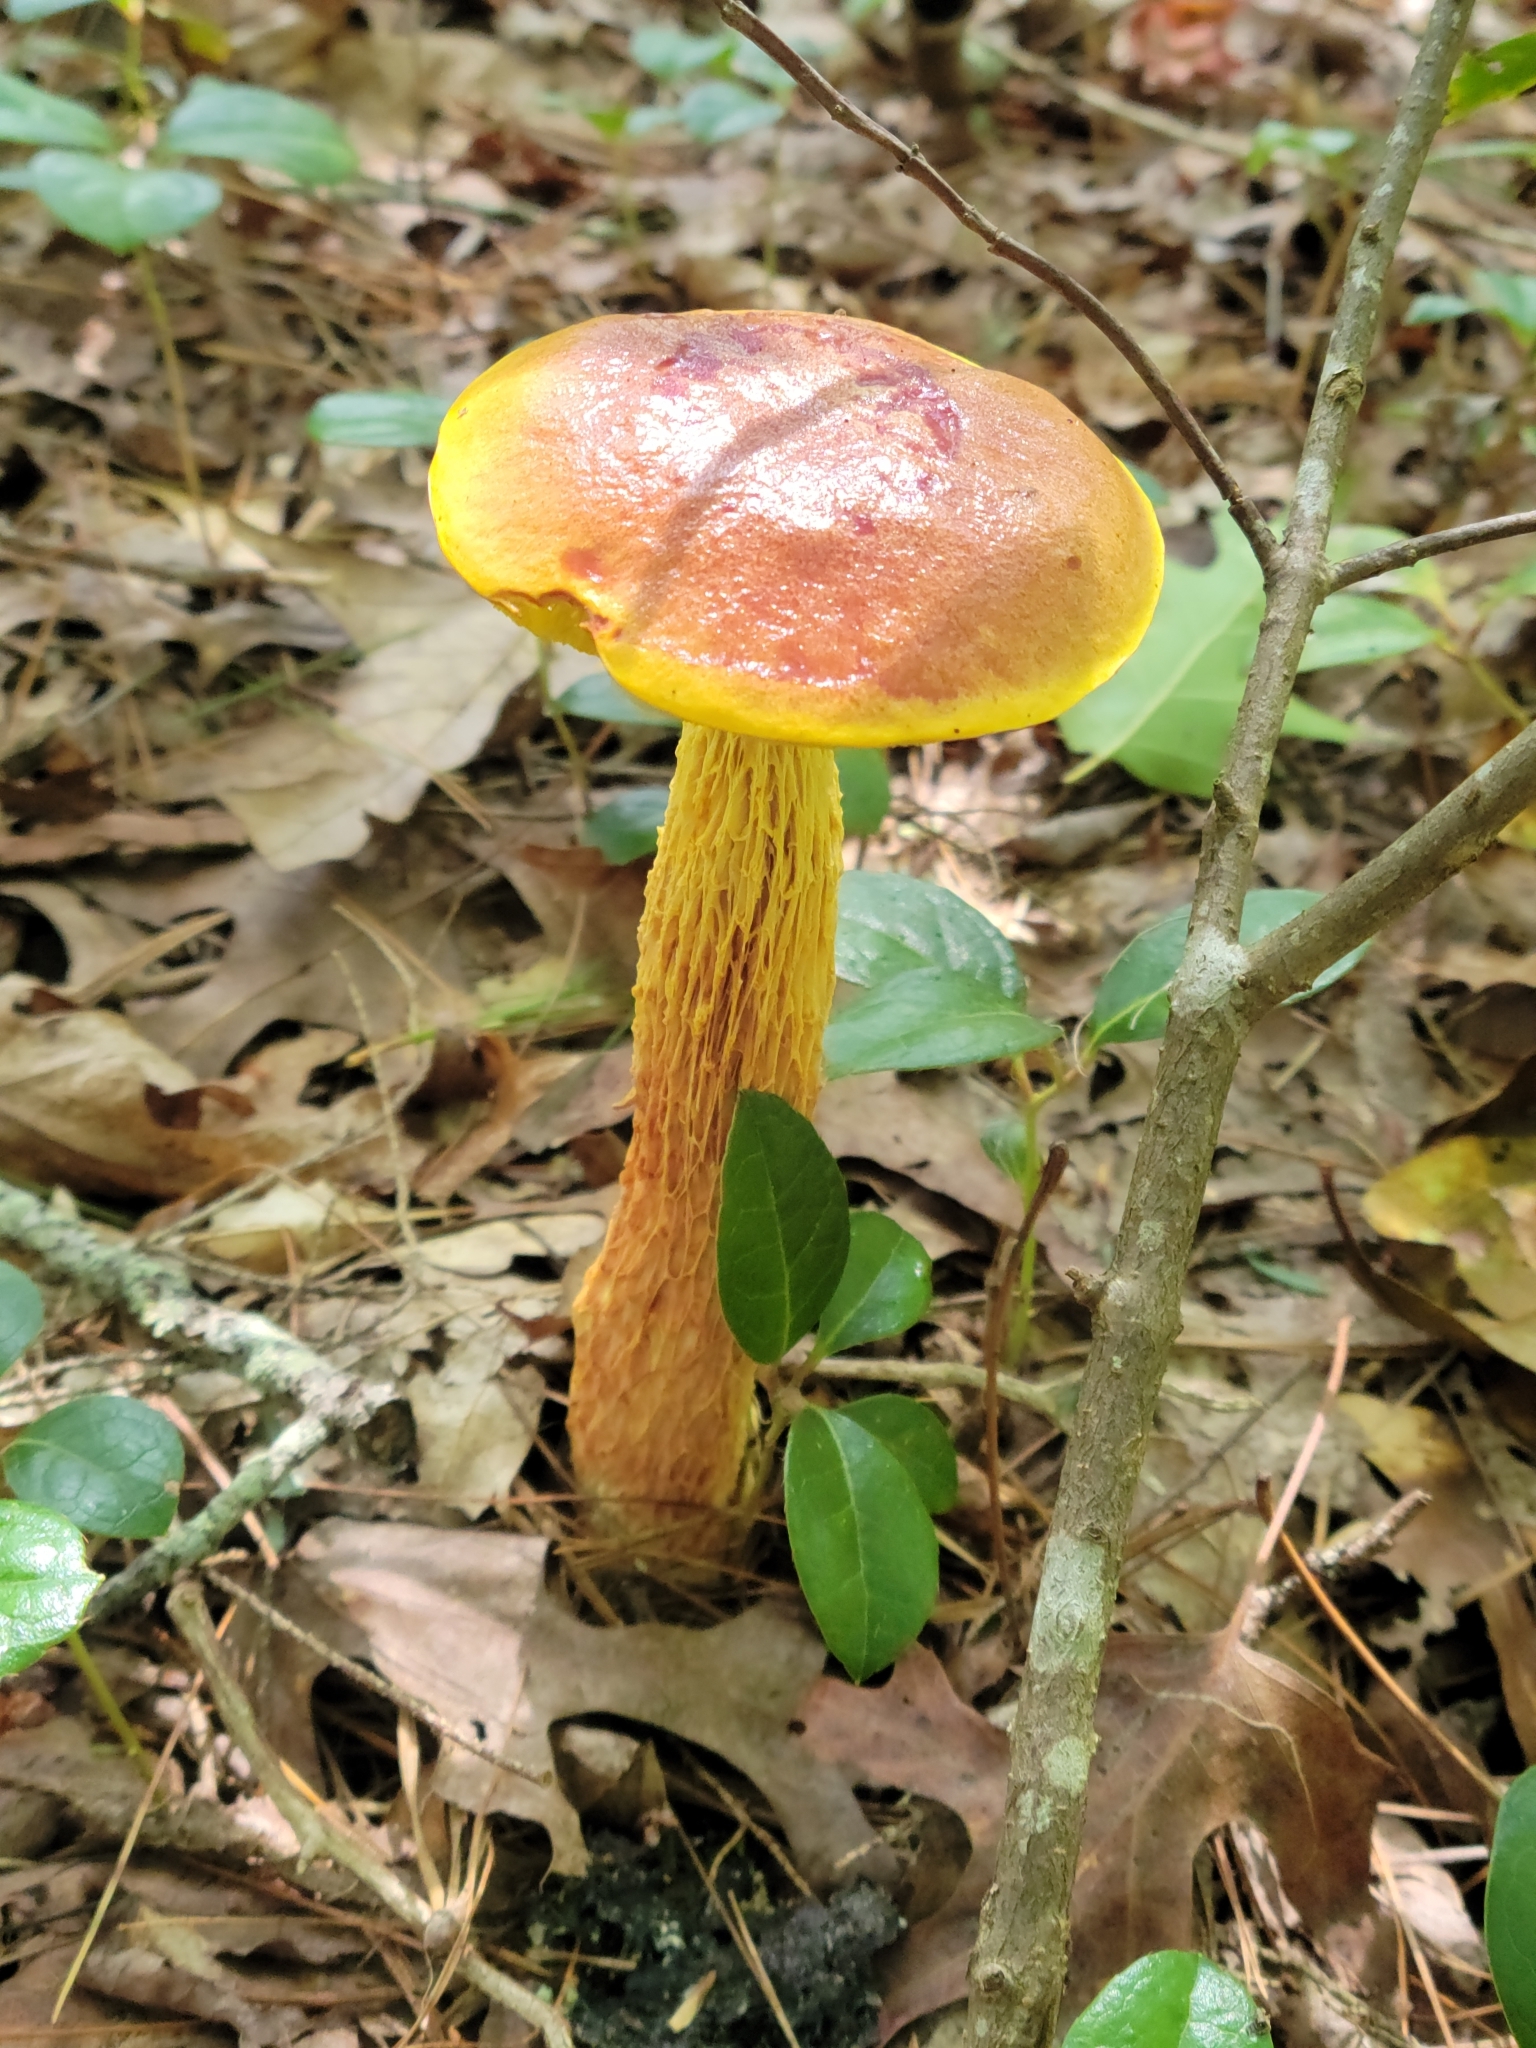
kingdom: Fungi
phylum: Basidiomycota
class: Agaricomycetes
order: Boletales
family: Boletaceae
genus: Aureoboletus
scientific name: Aureoboletus betula
